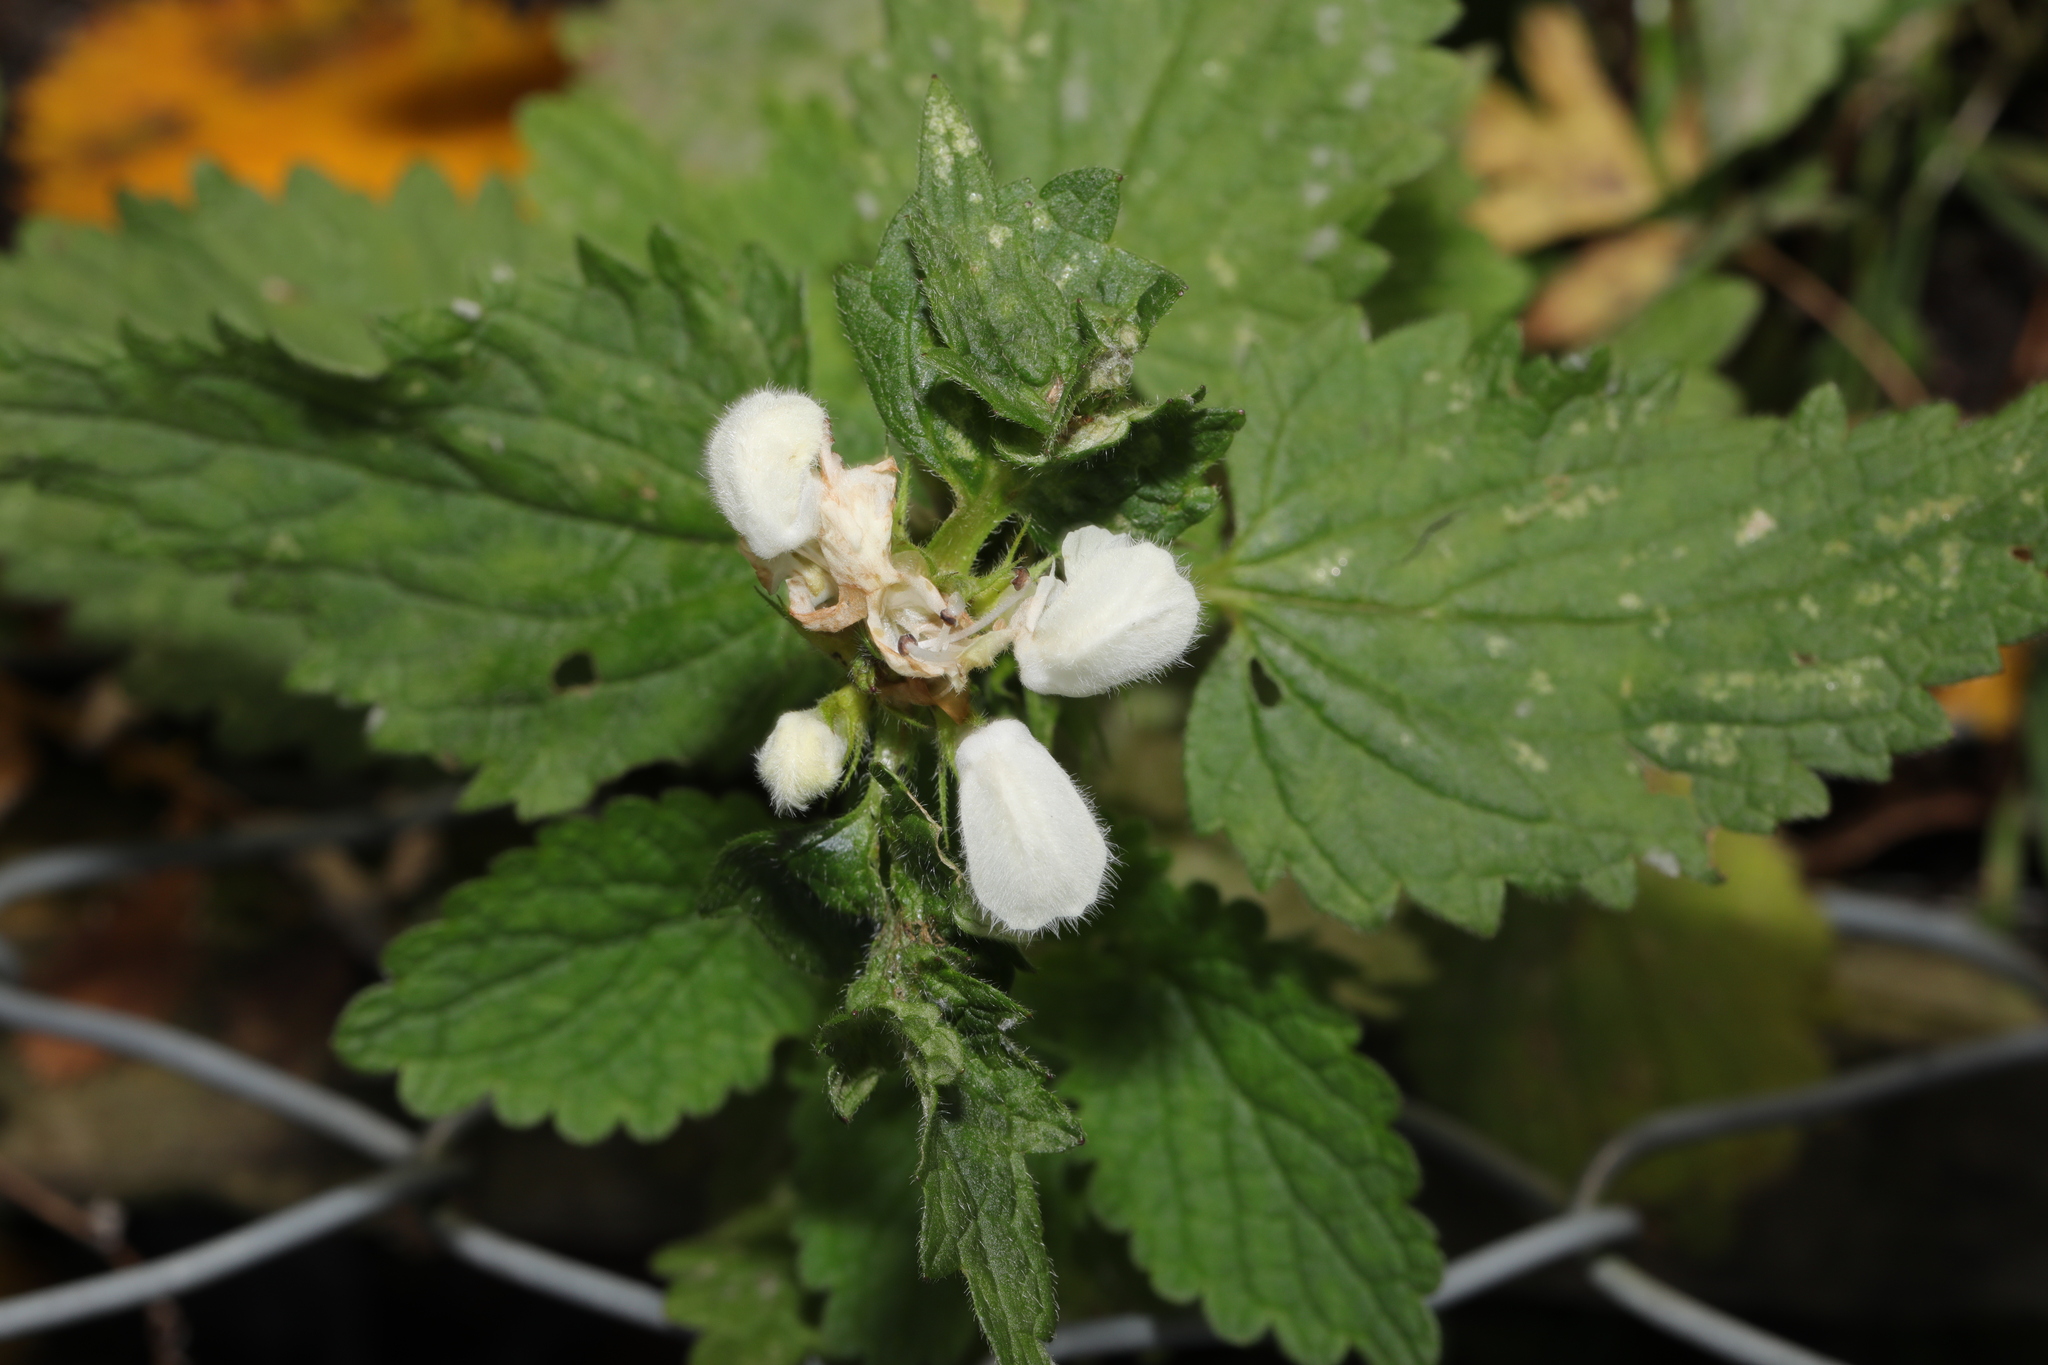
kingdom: Plantae
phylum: Tracheophyta
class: Magnoliopsida
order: Lamiales
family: Lamiaceae
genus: Lamium
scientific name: Lamium album
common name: White dead-nettle
